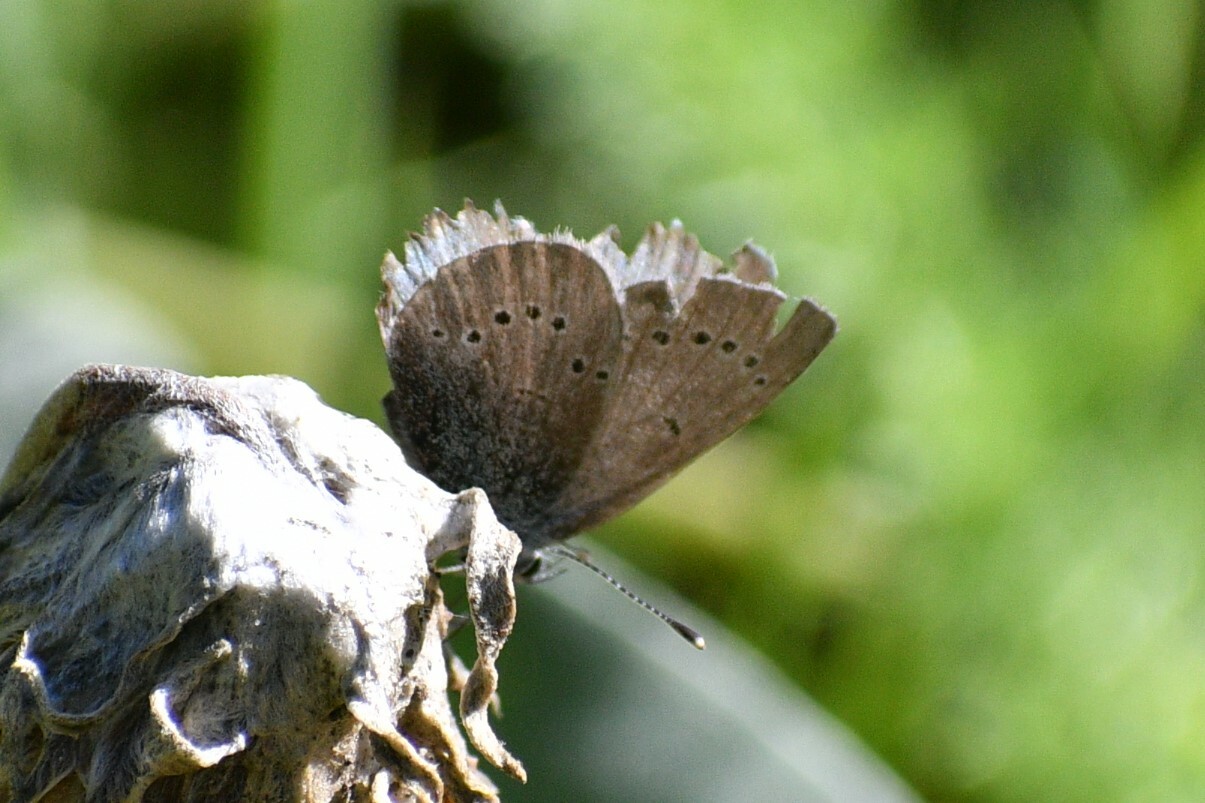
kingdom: Animalia
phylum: Arthropoda
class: Insecta
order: Lepidoptera
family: Lycaenidae
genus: Glaucopsyche
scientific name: Glaucopsyche lygdamus
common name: Silvery blue
